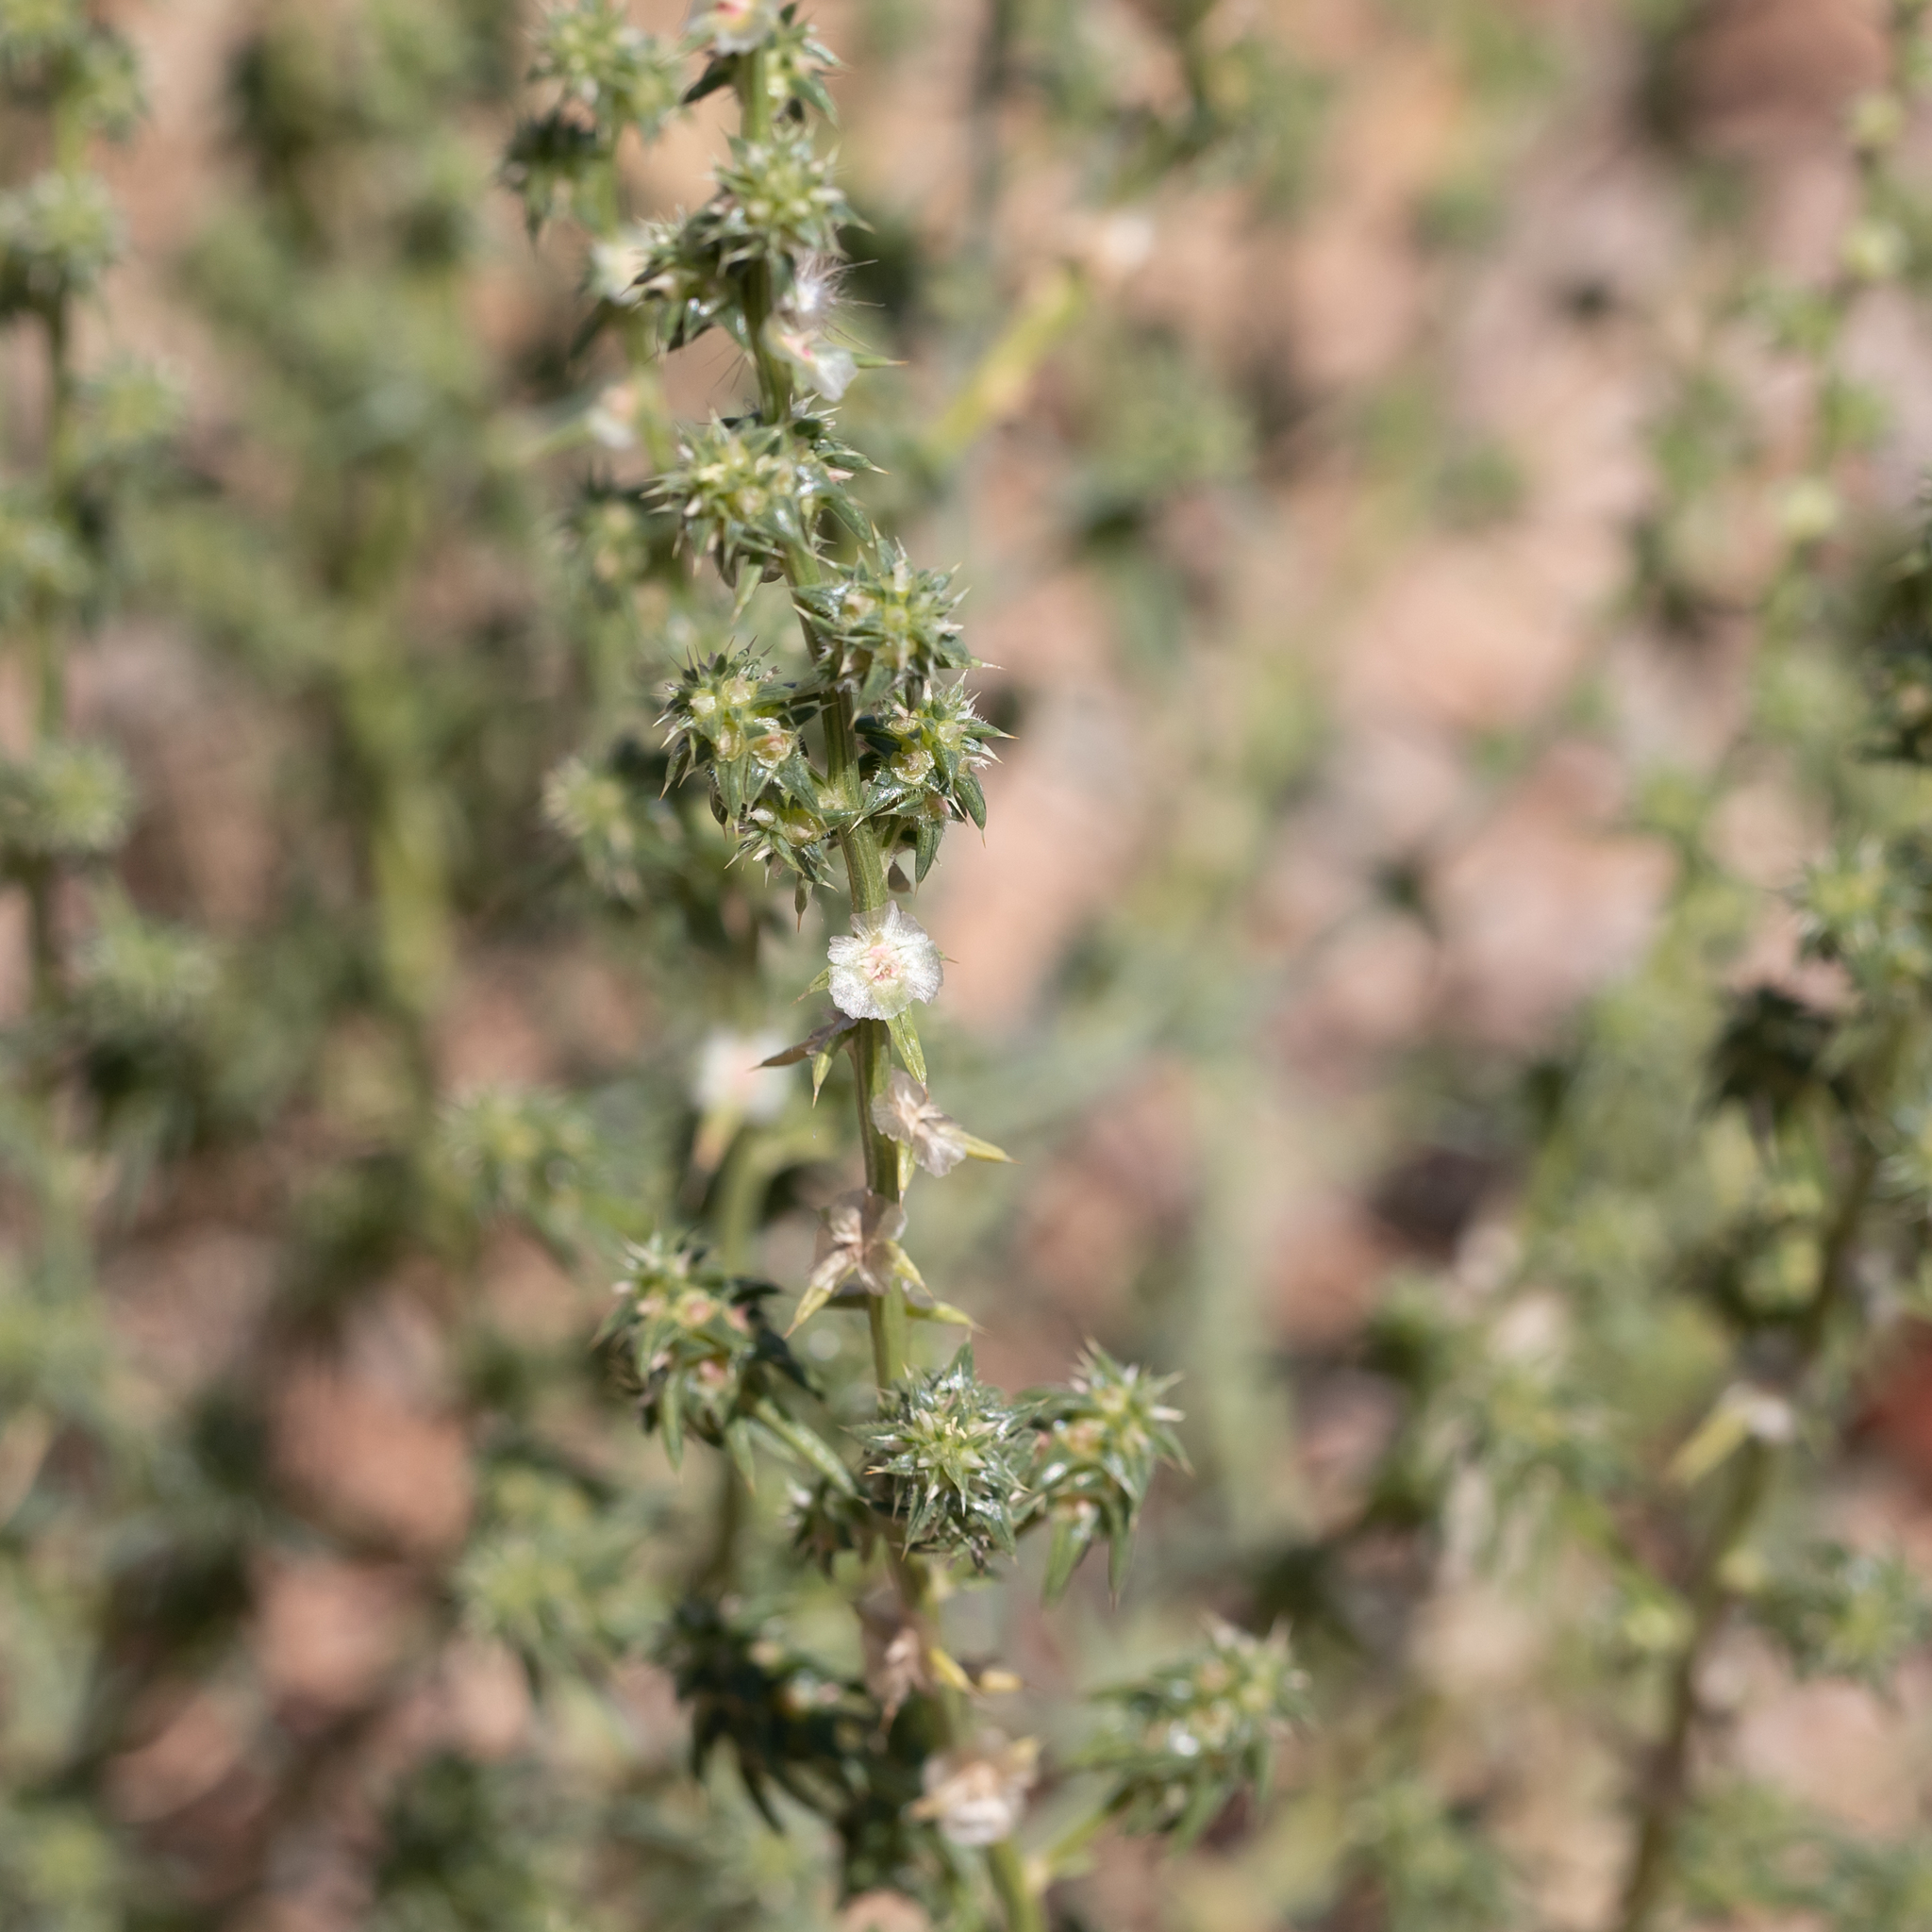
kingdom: Plantae
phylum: Tracheophyta
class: Magnoliopsida
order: Caryophyllales
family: Amaranthaceae
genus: Salsola
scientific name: Salsola australis
